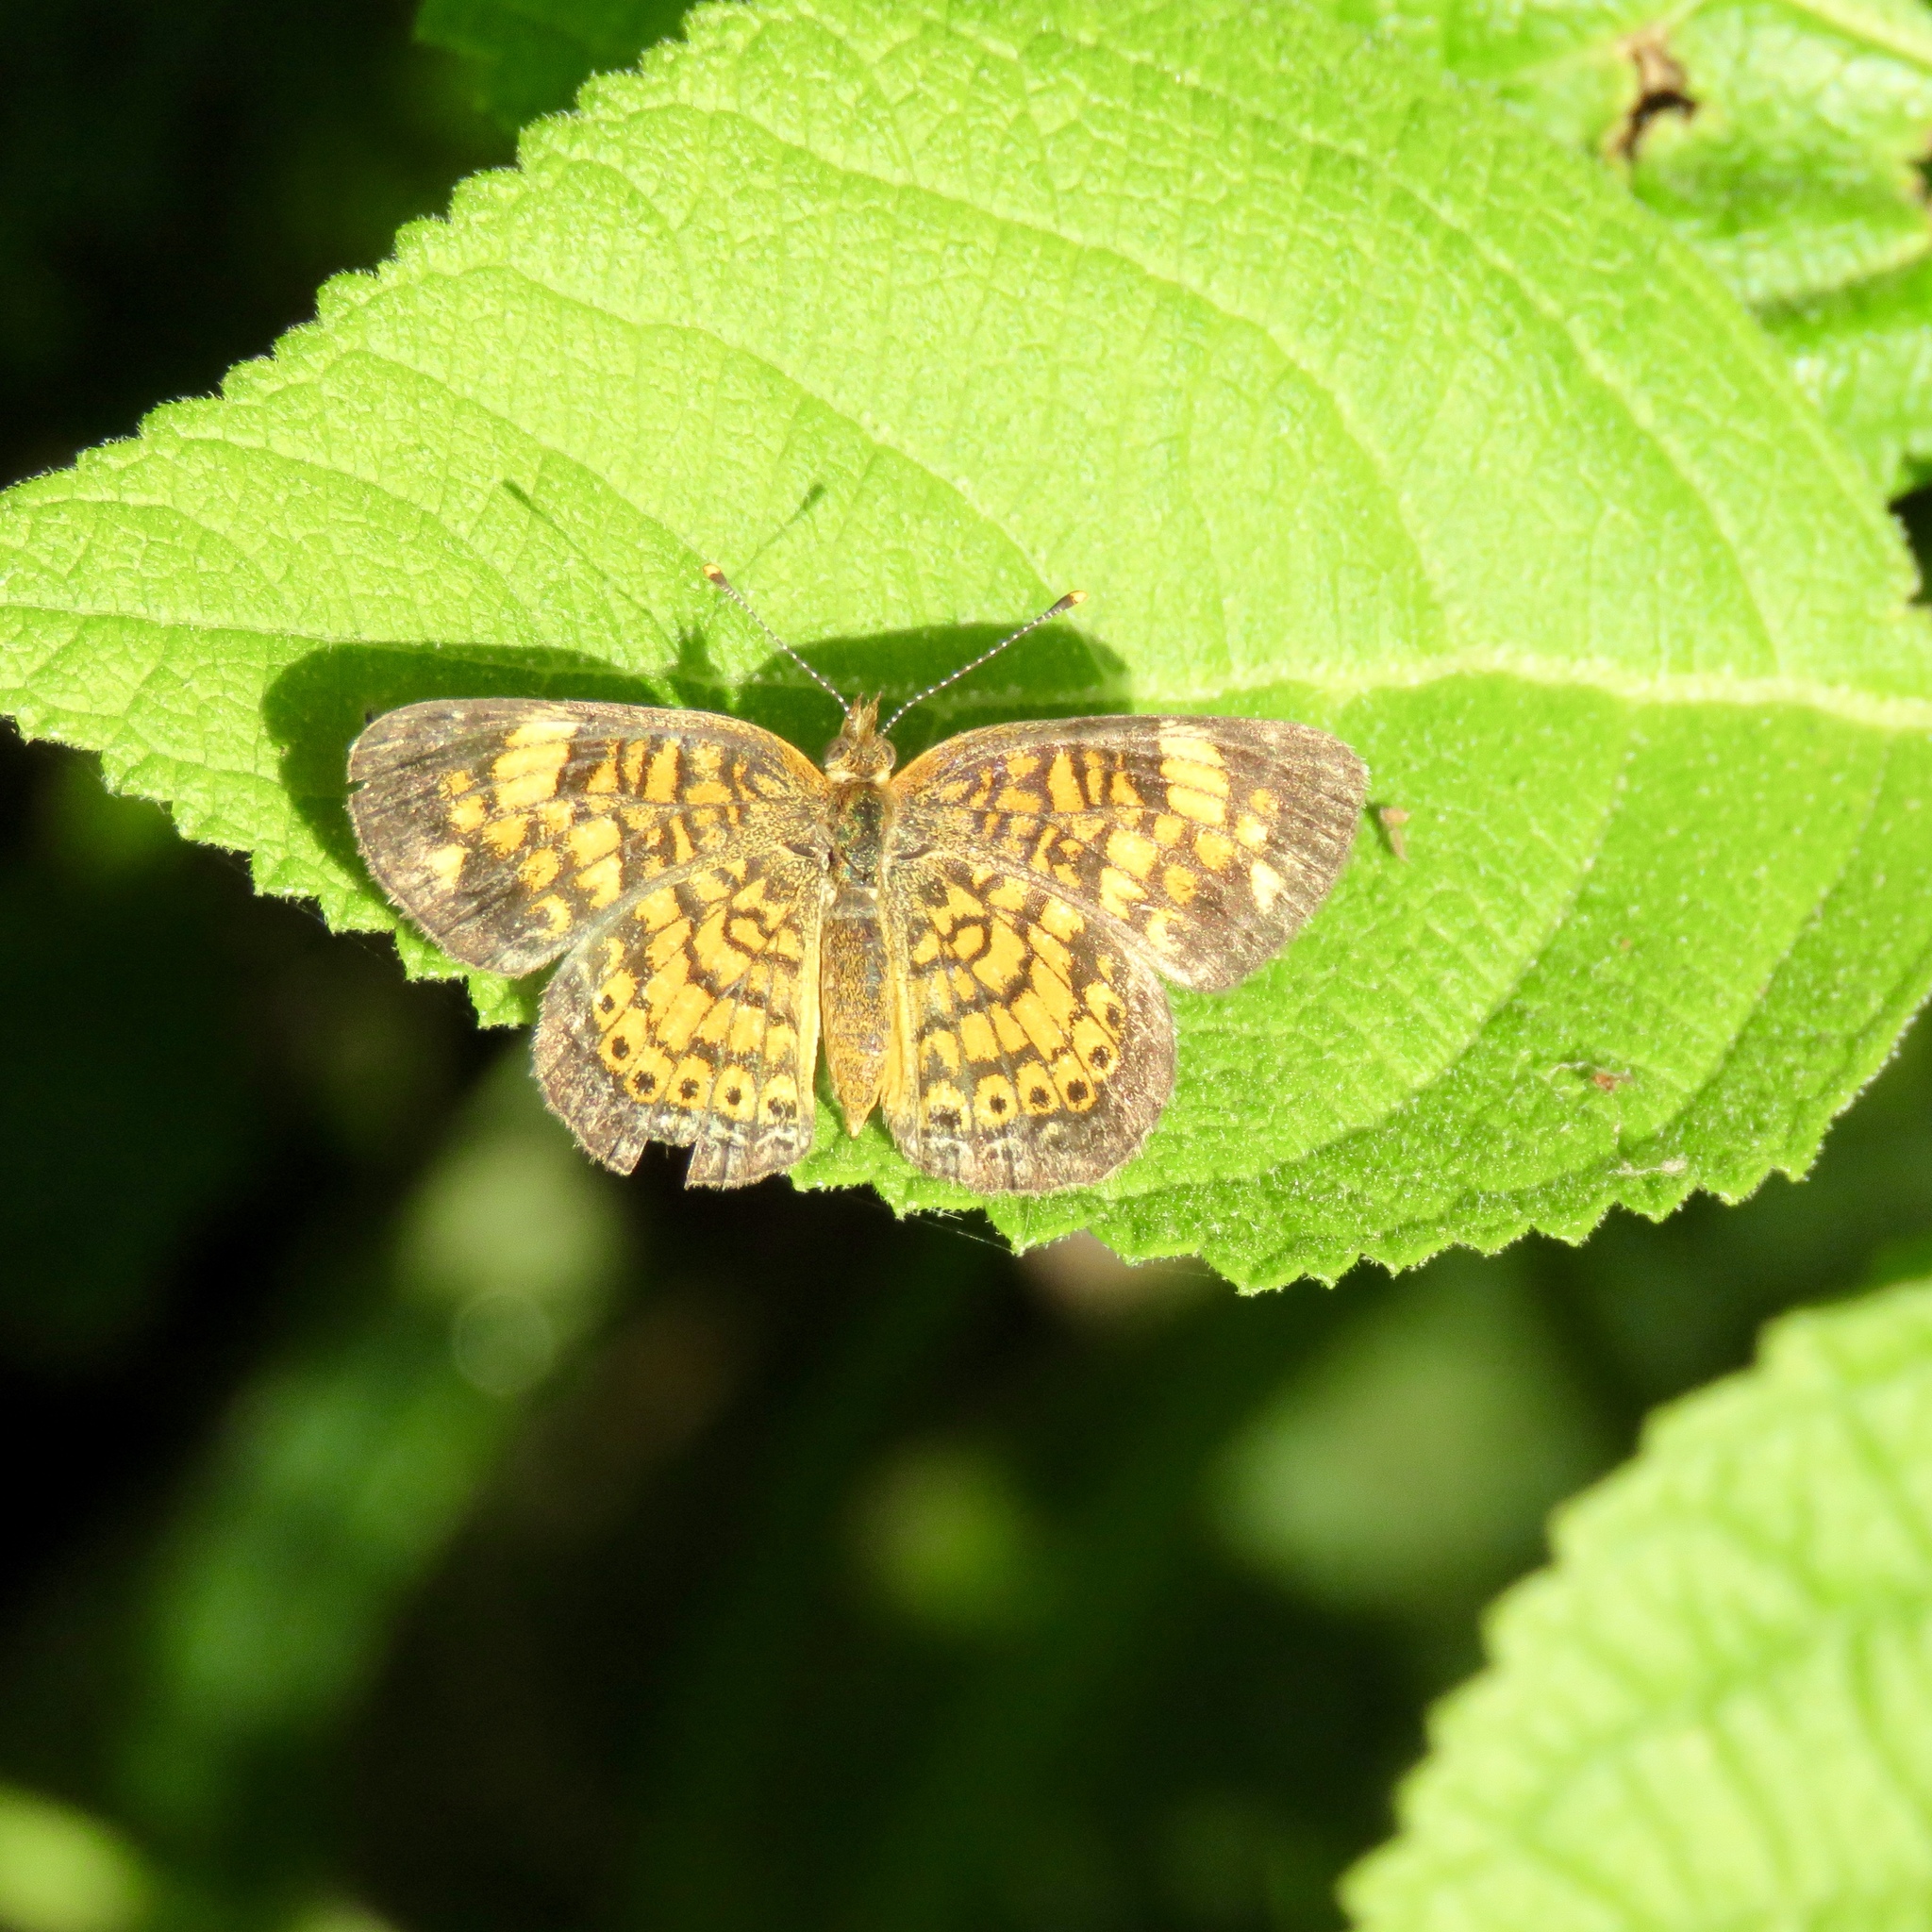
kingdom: Animalia
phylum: Arthropoda
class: Insecta
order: Lepidoptera
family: Nymphalidae
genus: Phyciodes
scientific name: Phyciodes tharos
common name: Pearl crescent
